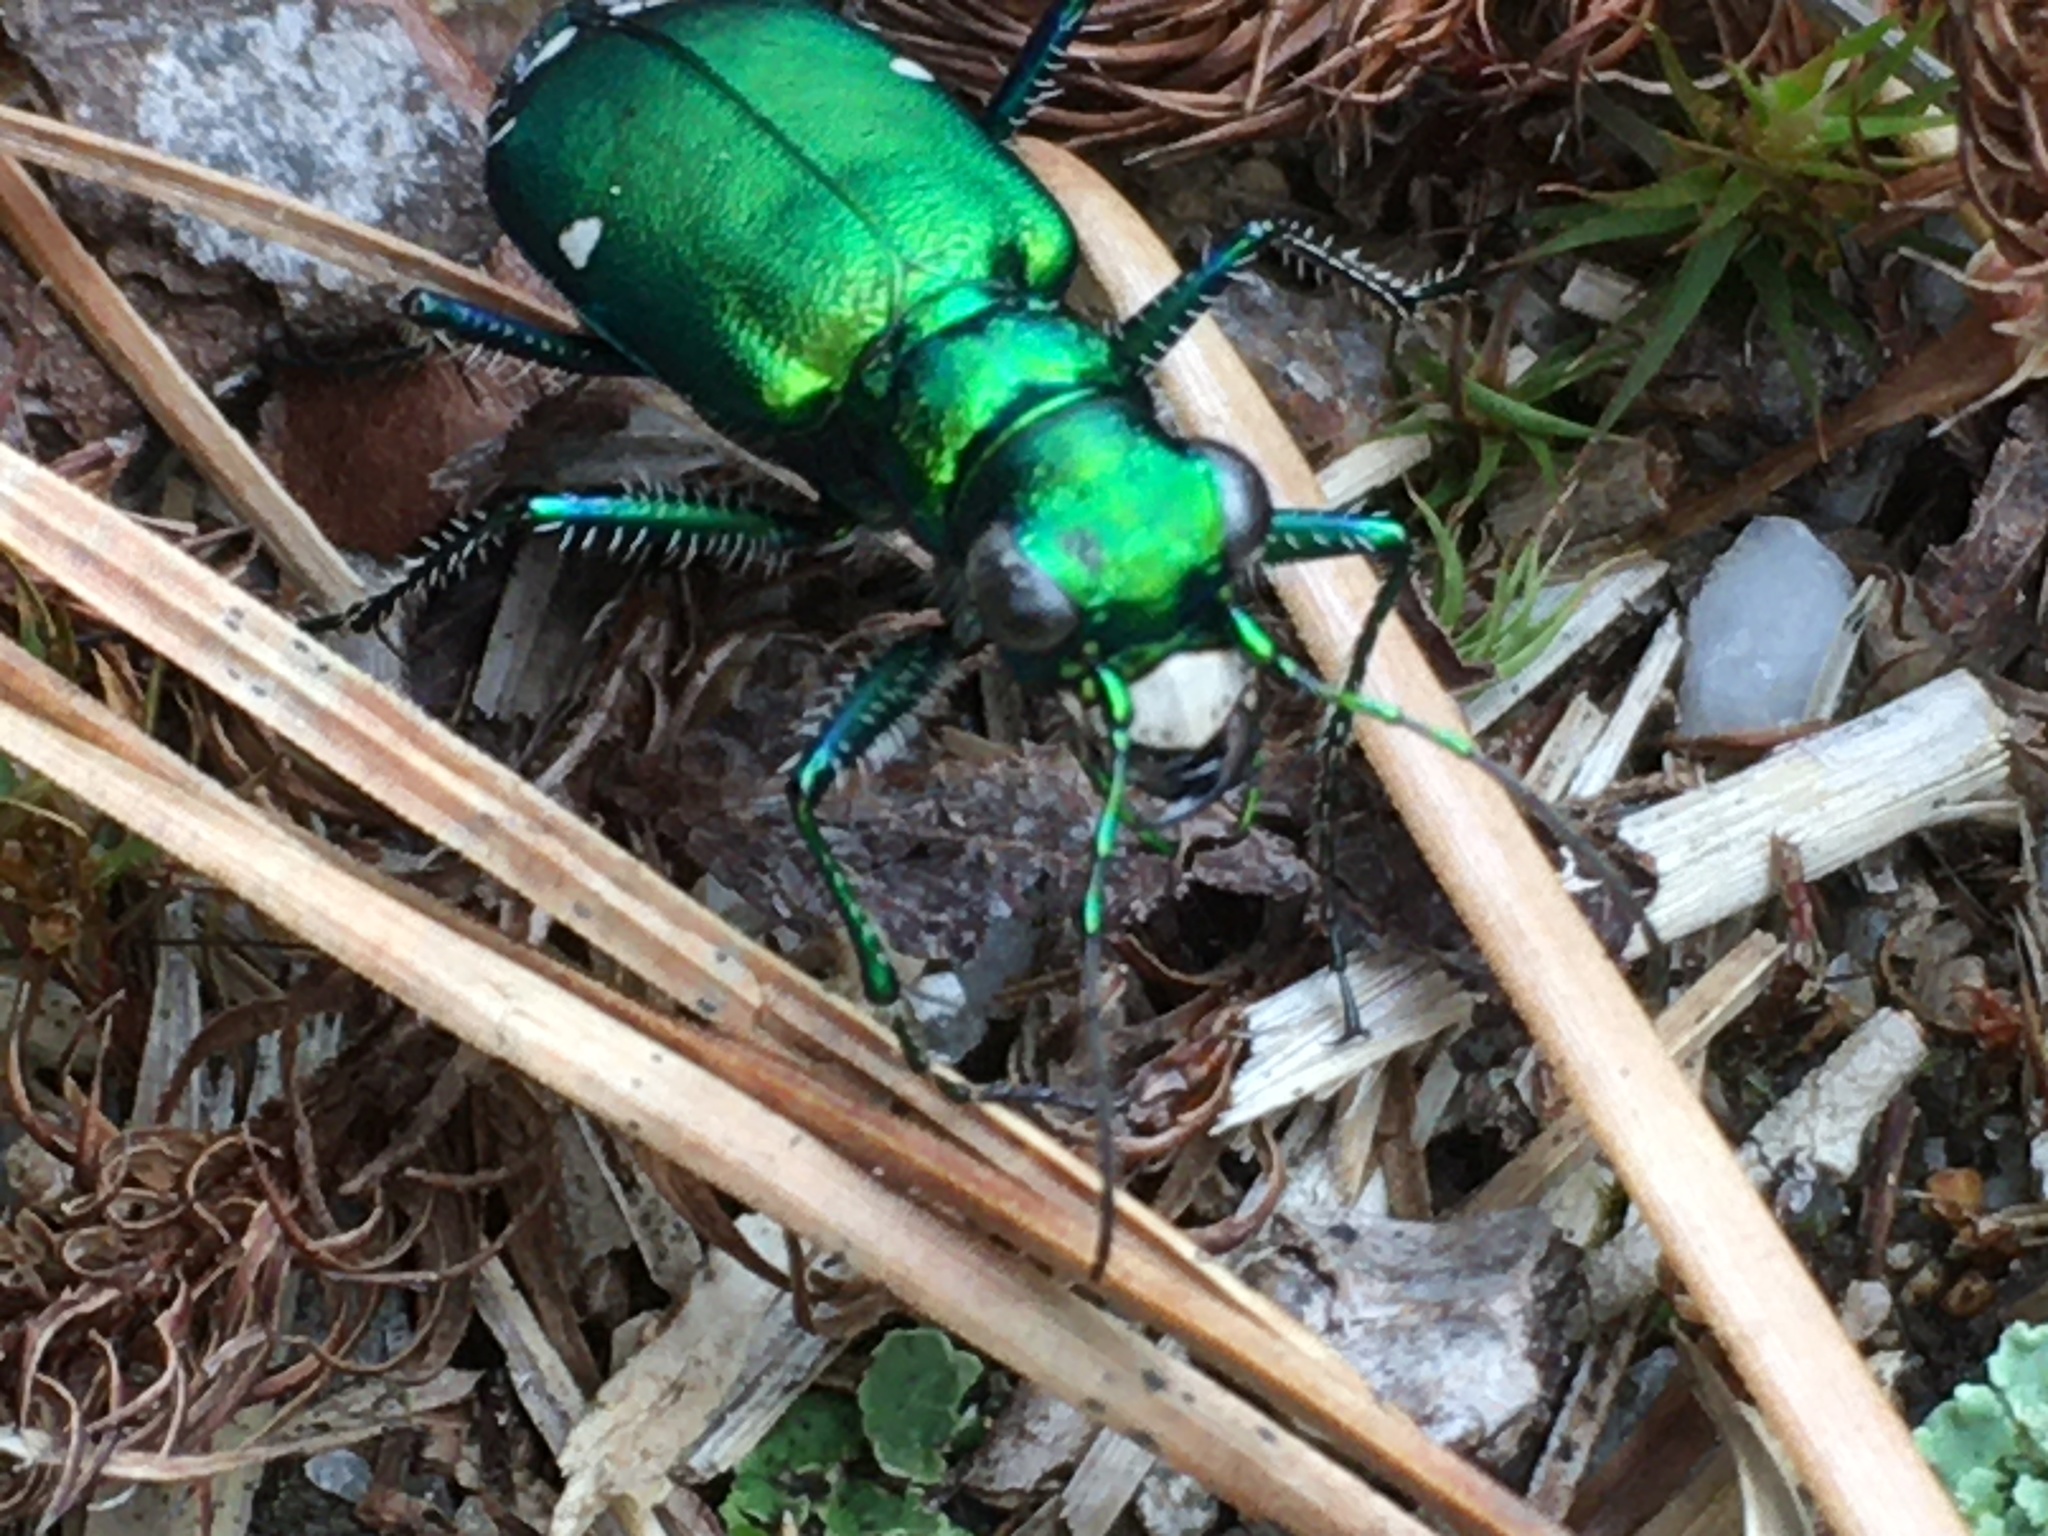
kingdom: Animalia
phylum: Arthropoda
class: Insecta
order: Coleoptera
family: Carabidae
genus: Cicindela
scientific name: Cicindela sexguttata
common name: Six-spotted tiger beetle
